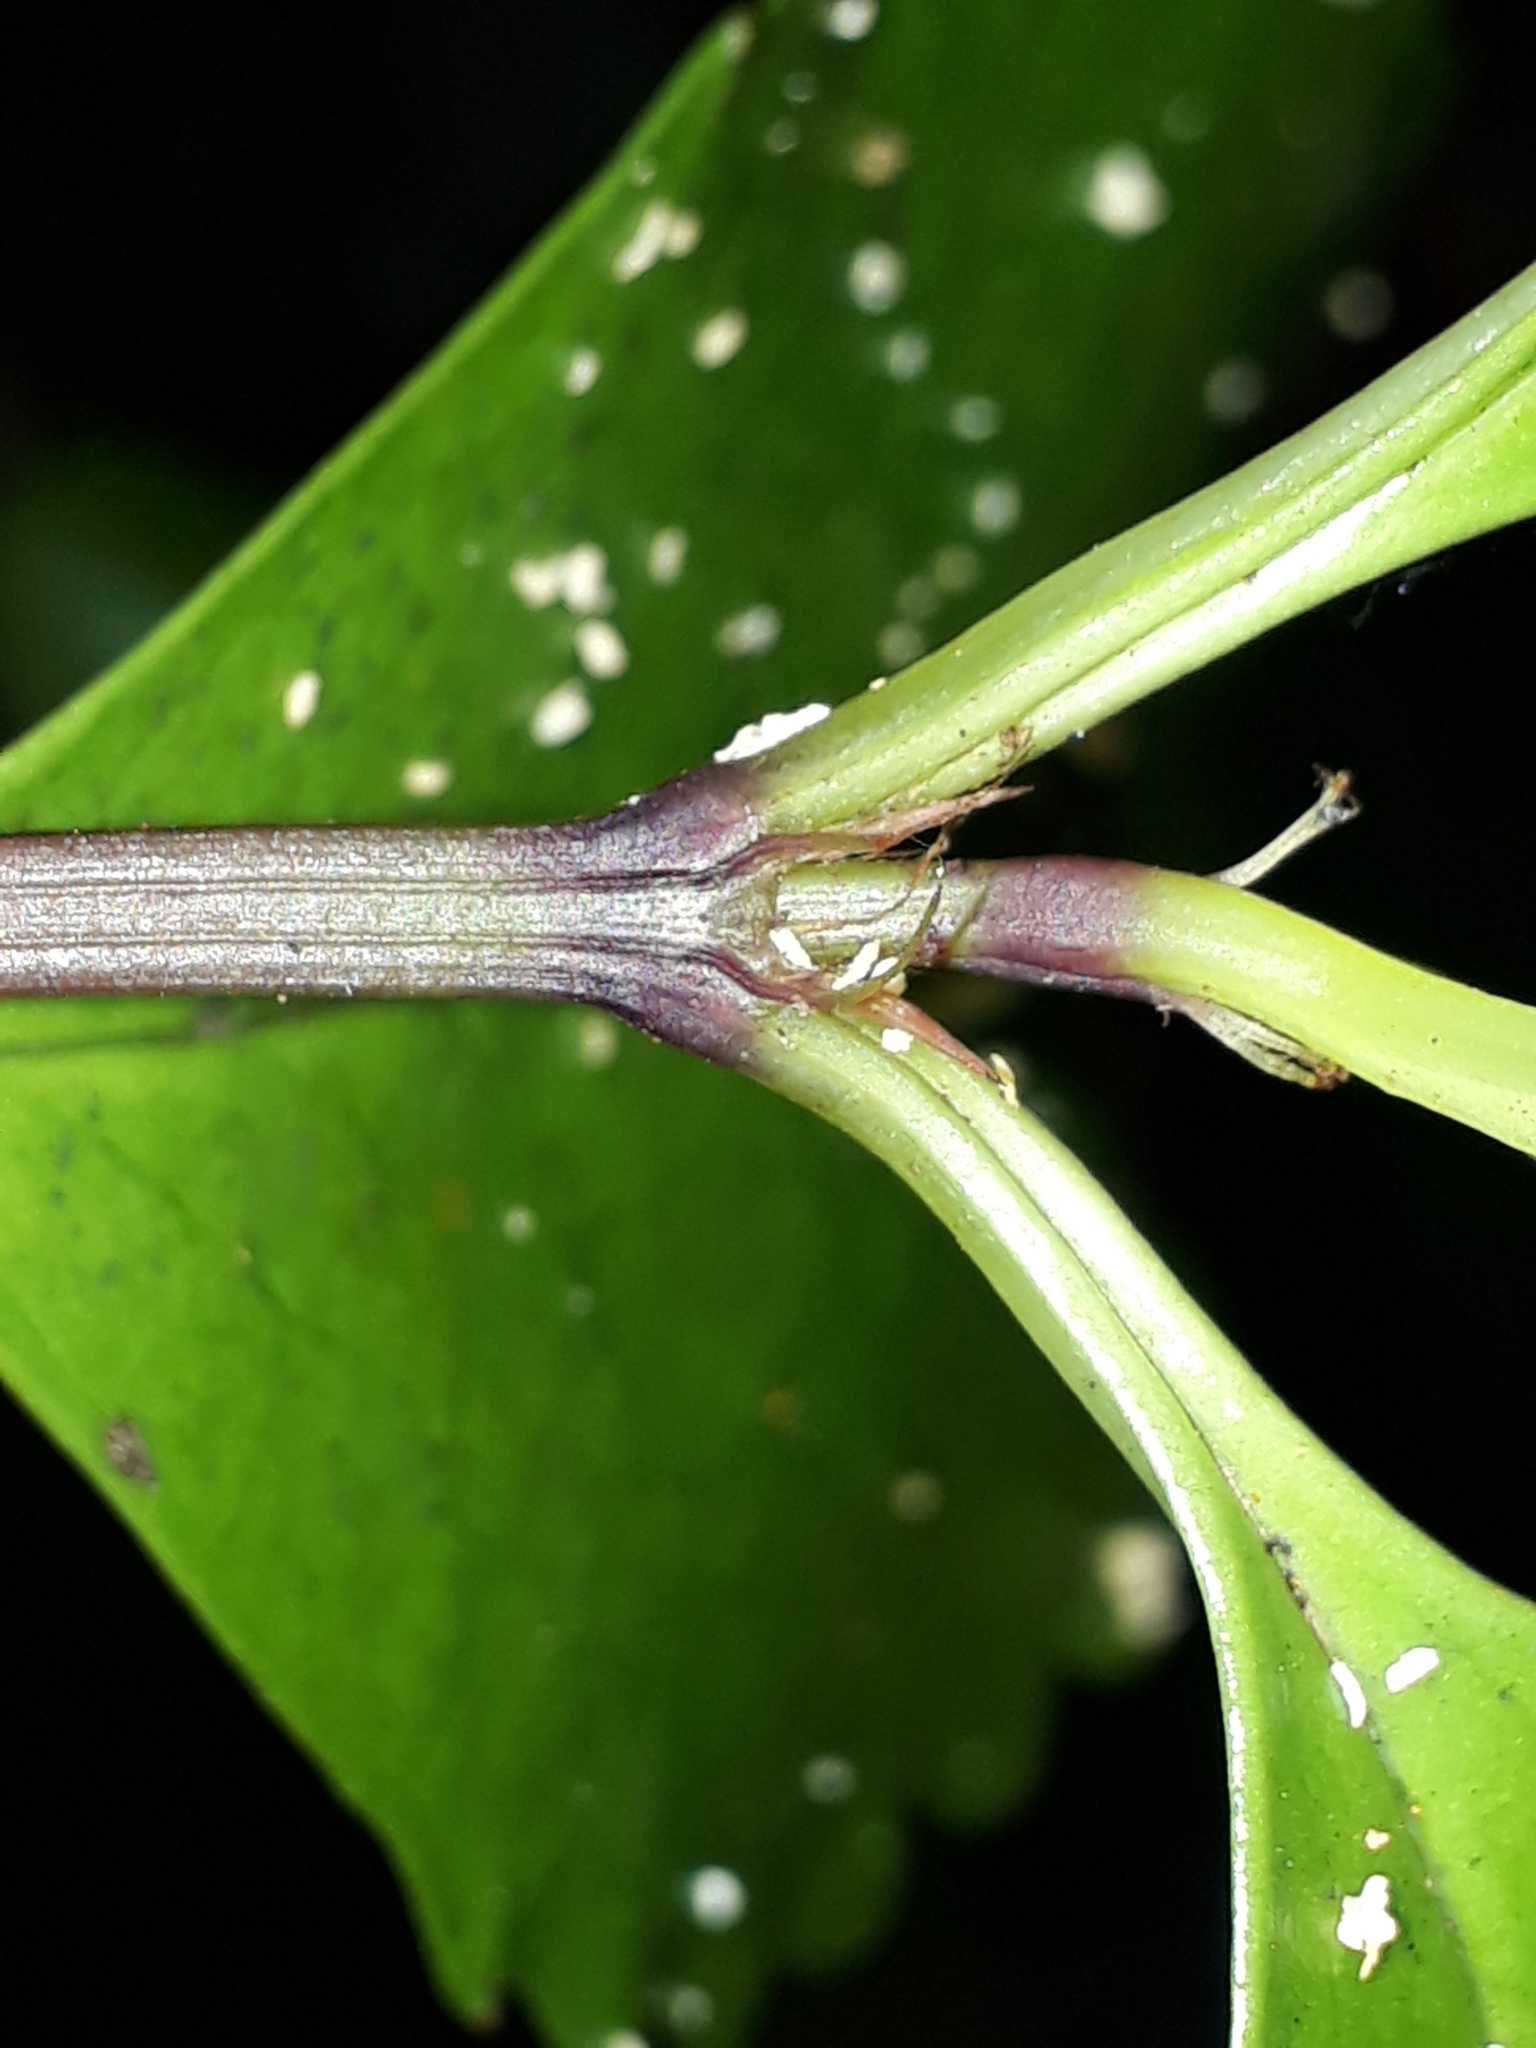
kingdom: Plantae
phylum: Tracheophyta
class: Magnoliopsida
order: Chloranthales
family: Chloranthaceae
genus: Ascarina
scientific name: Ascarina lucida
